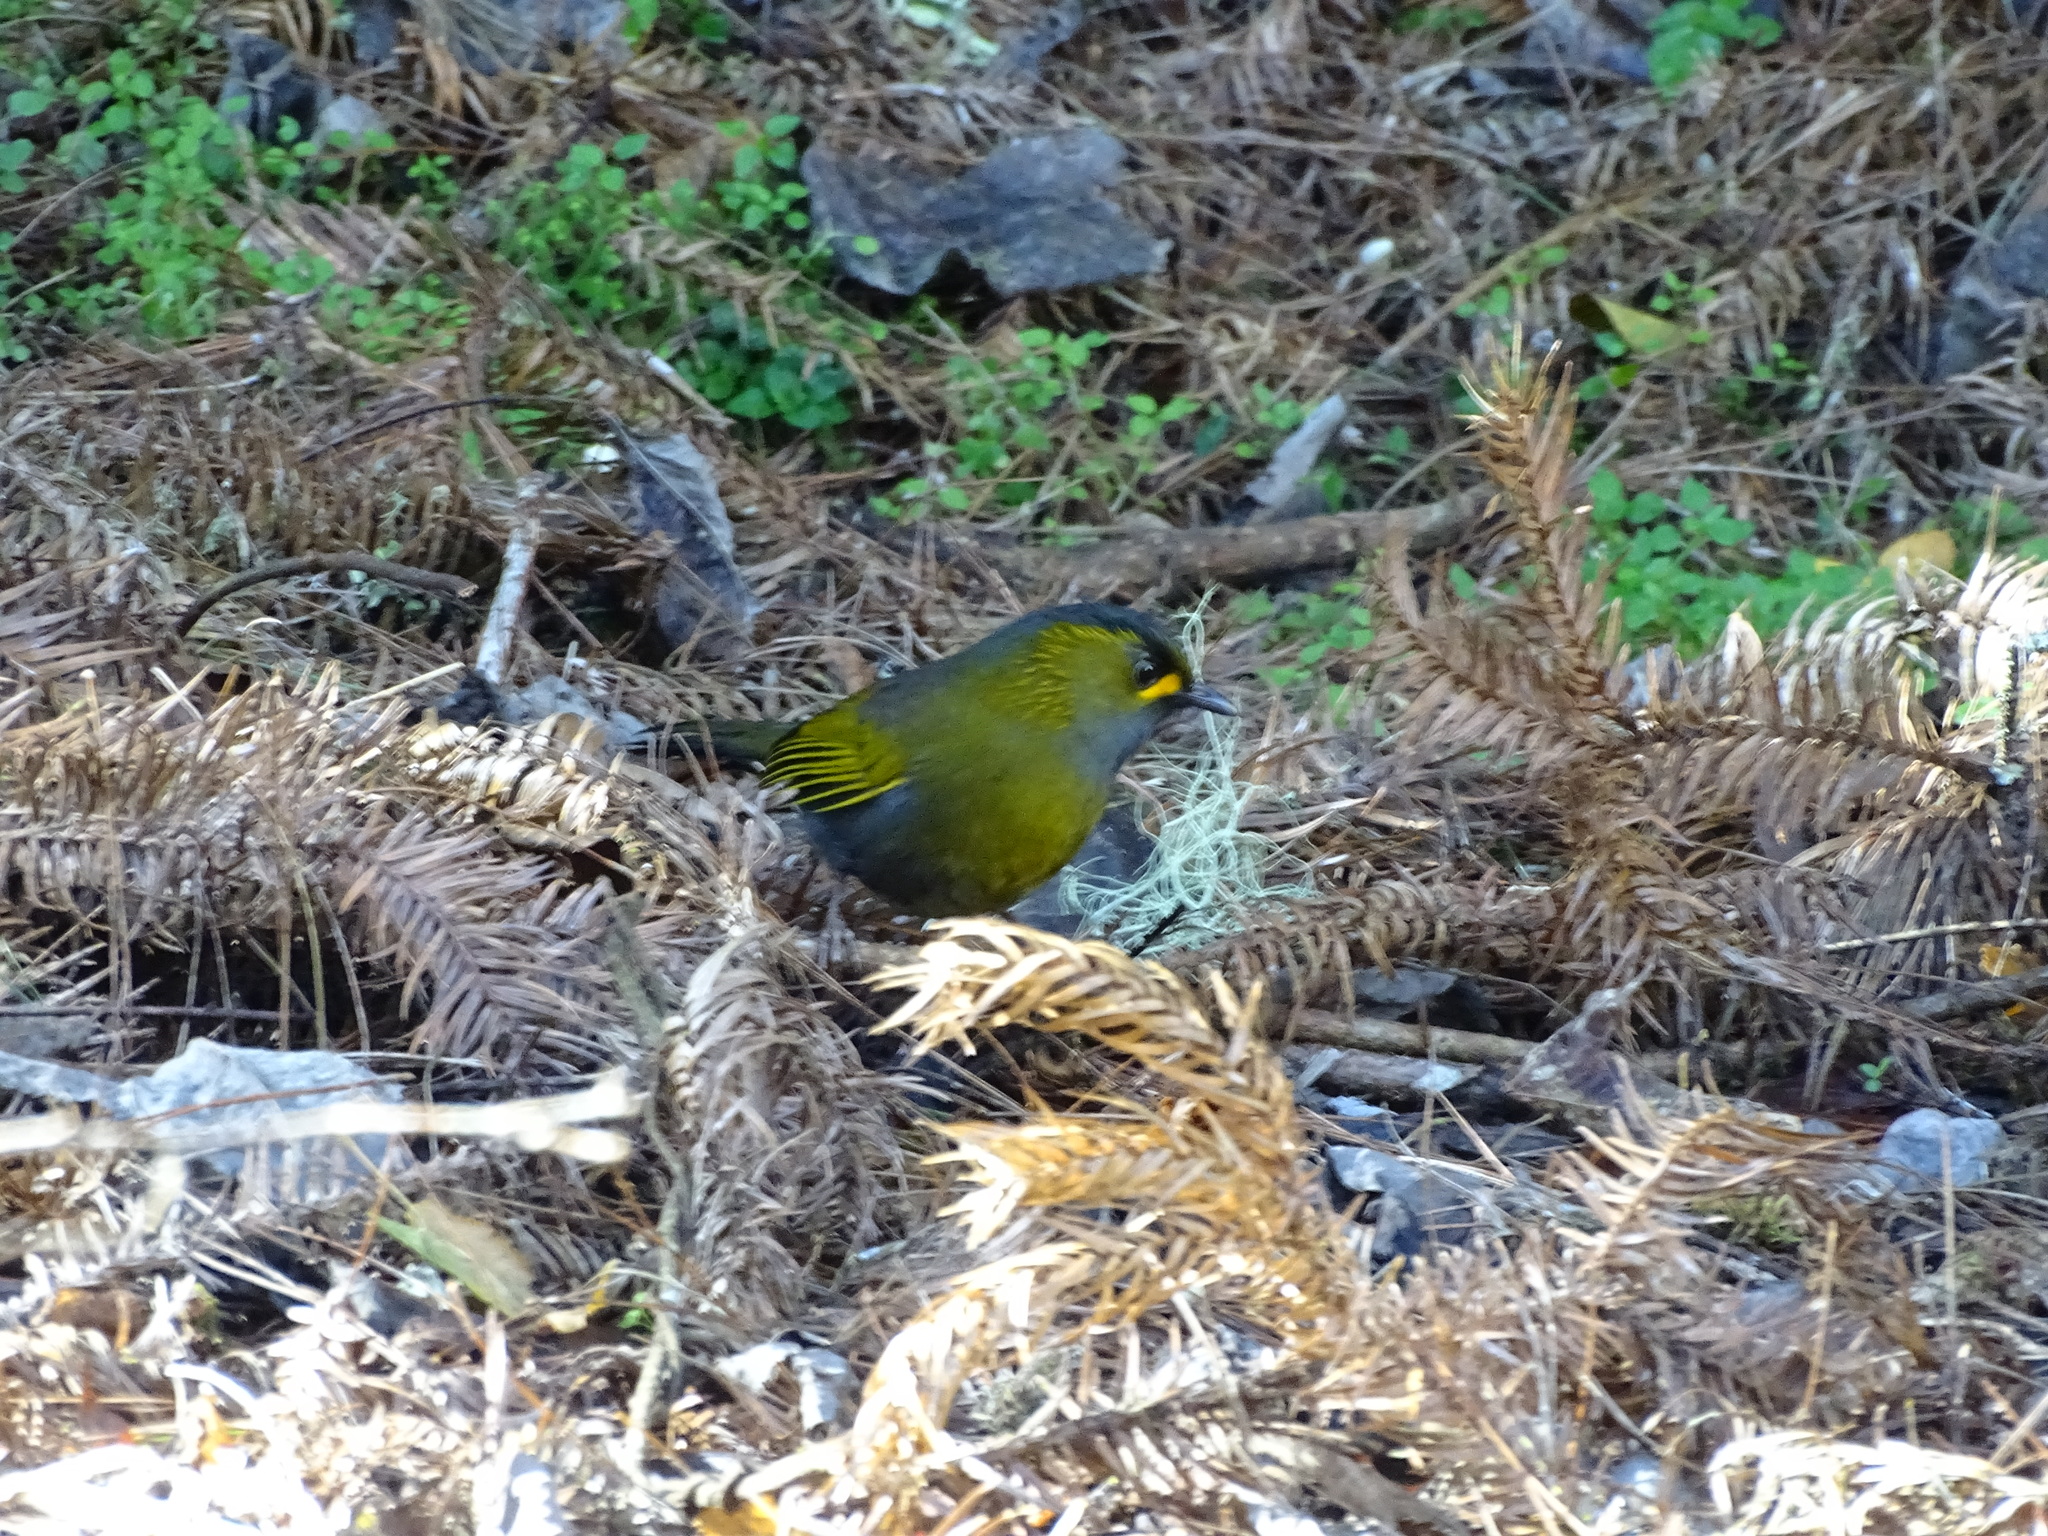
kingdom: Animalia
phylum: Chordata
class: Aves
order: Passeriformes
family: Leiothrichidae
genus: Liocichla
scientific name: Liocichla steerii
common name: Steere's liocichla
